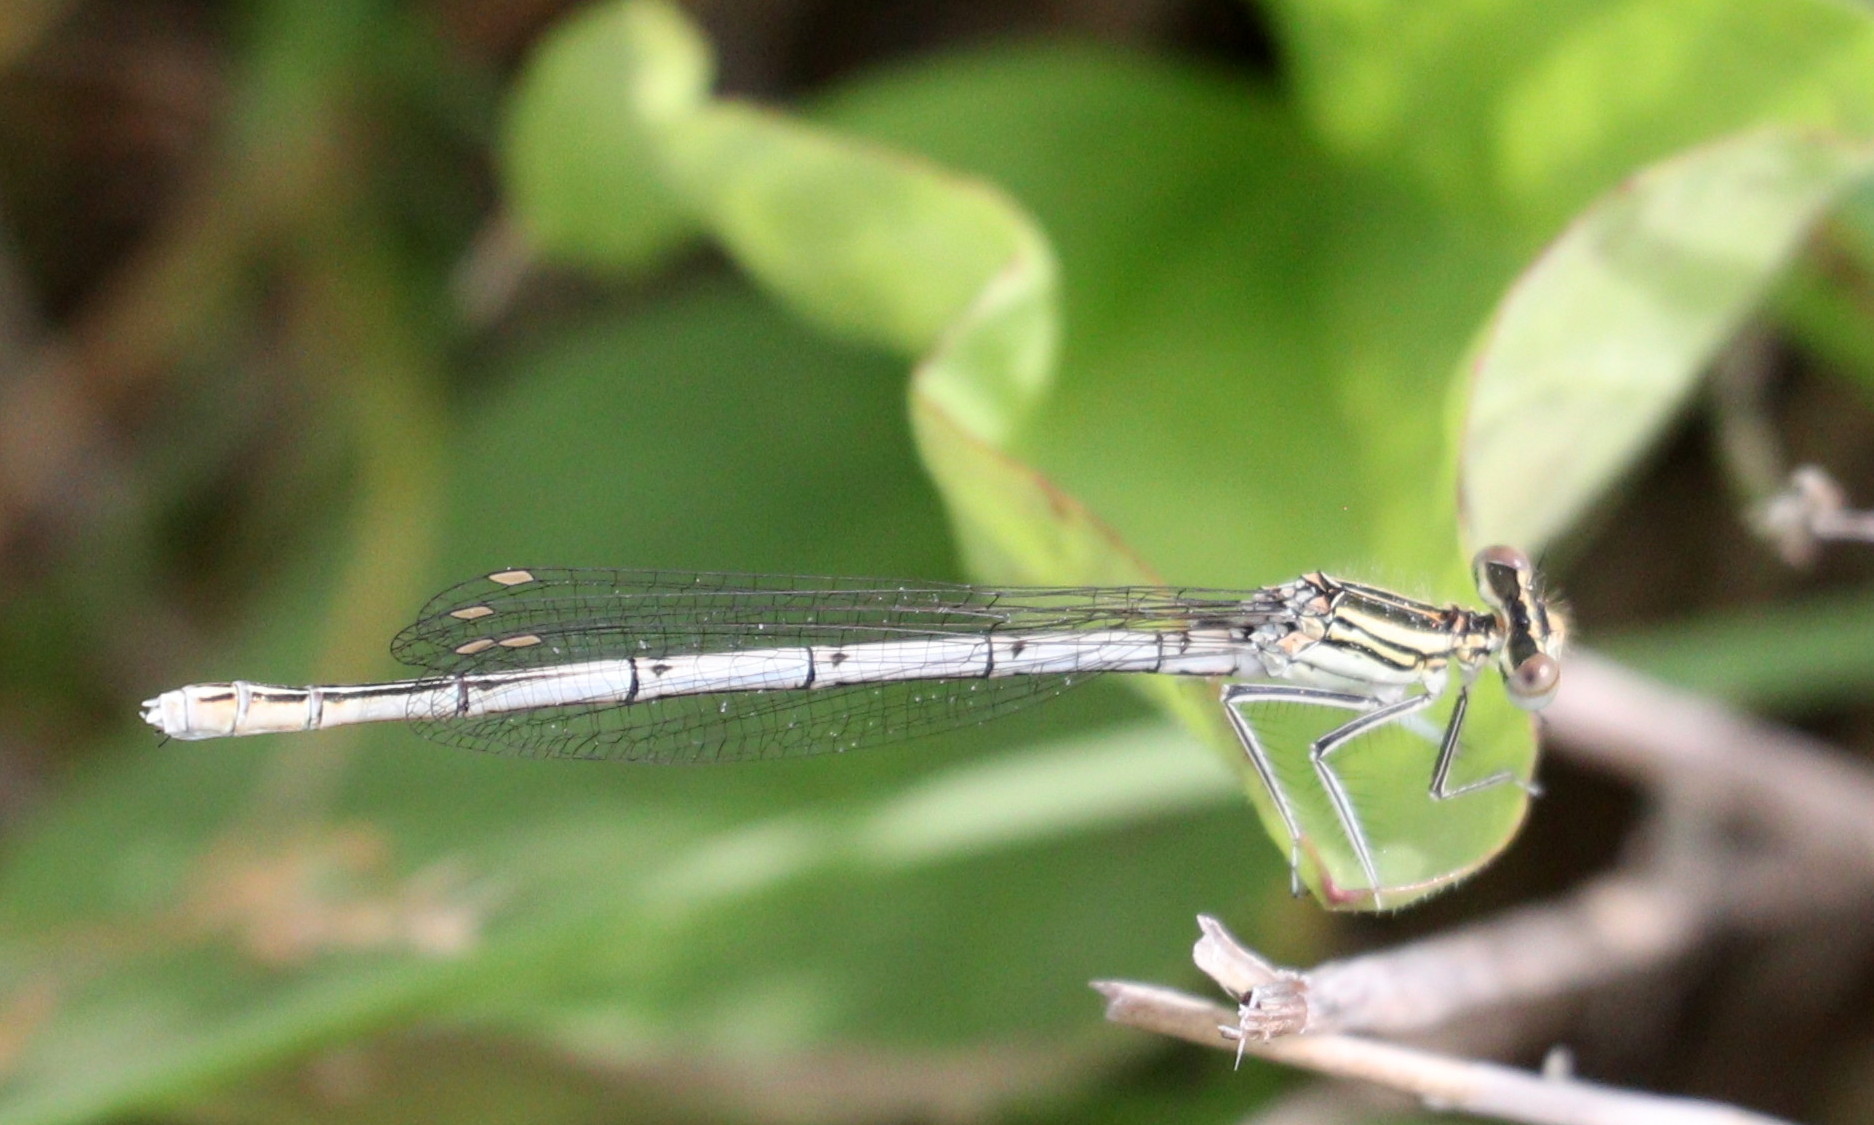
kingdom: Animalia
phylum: Arthropoda
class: Insecta
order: Odonata
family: Platycnemididae
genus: Platycnemis
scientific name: Platycnemis pennipes
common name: White-legged damselfly
